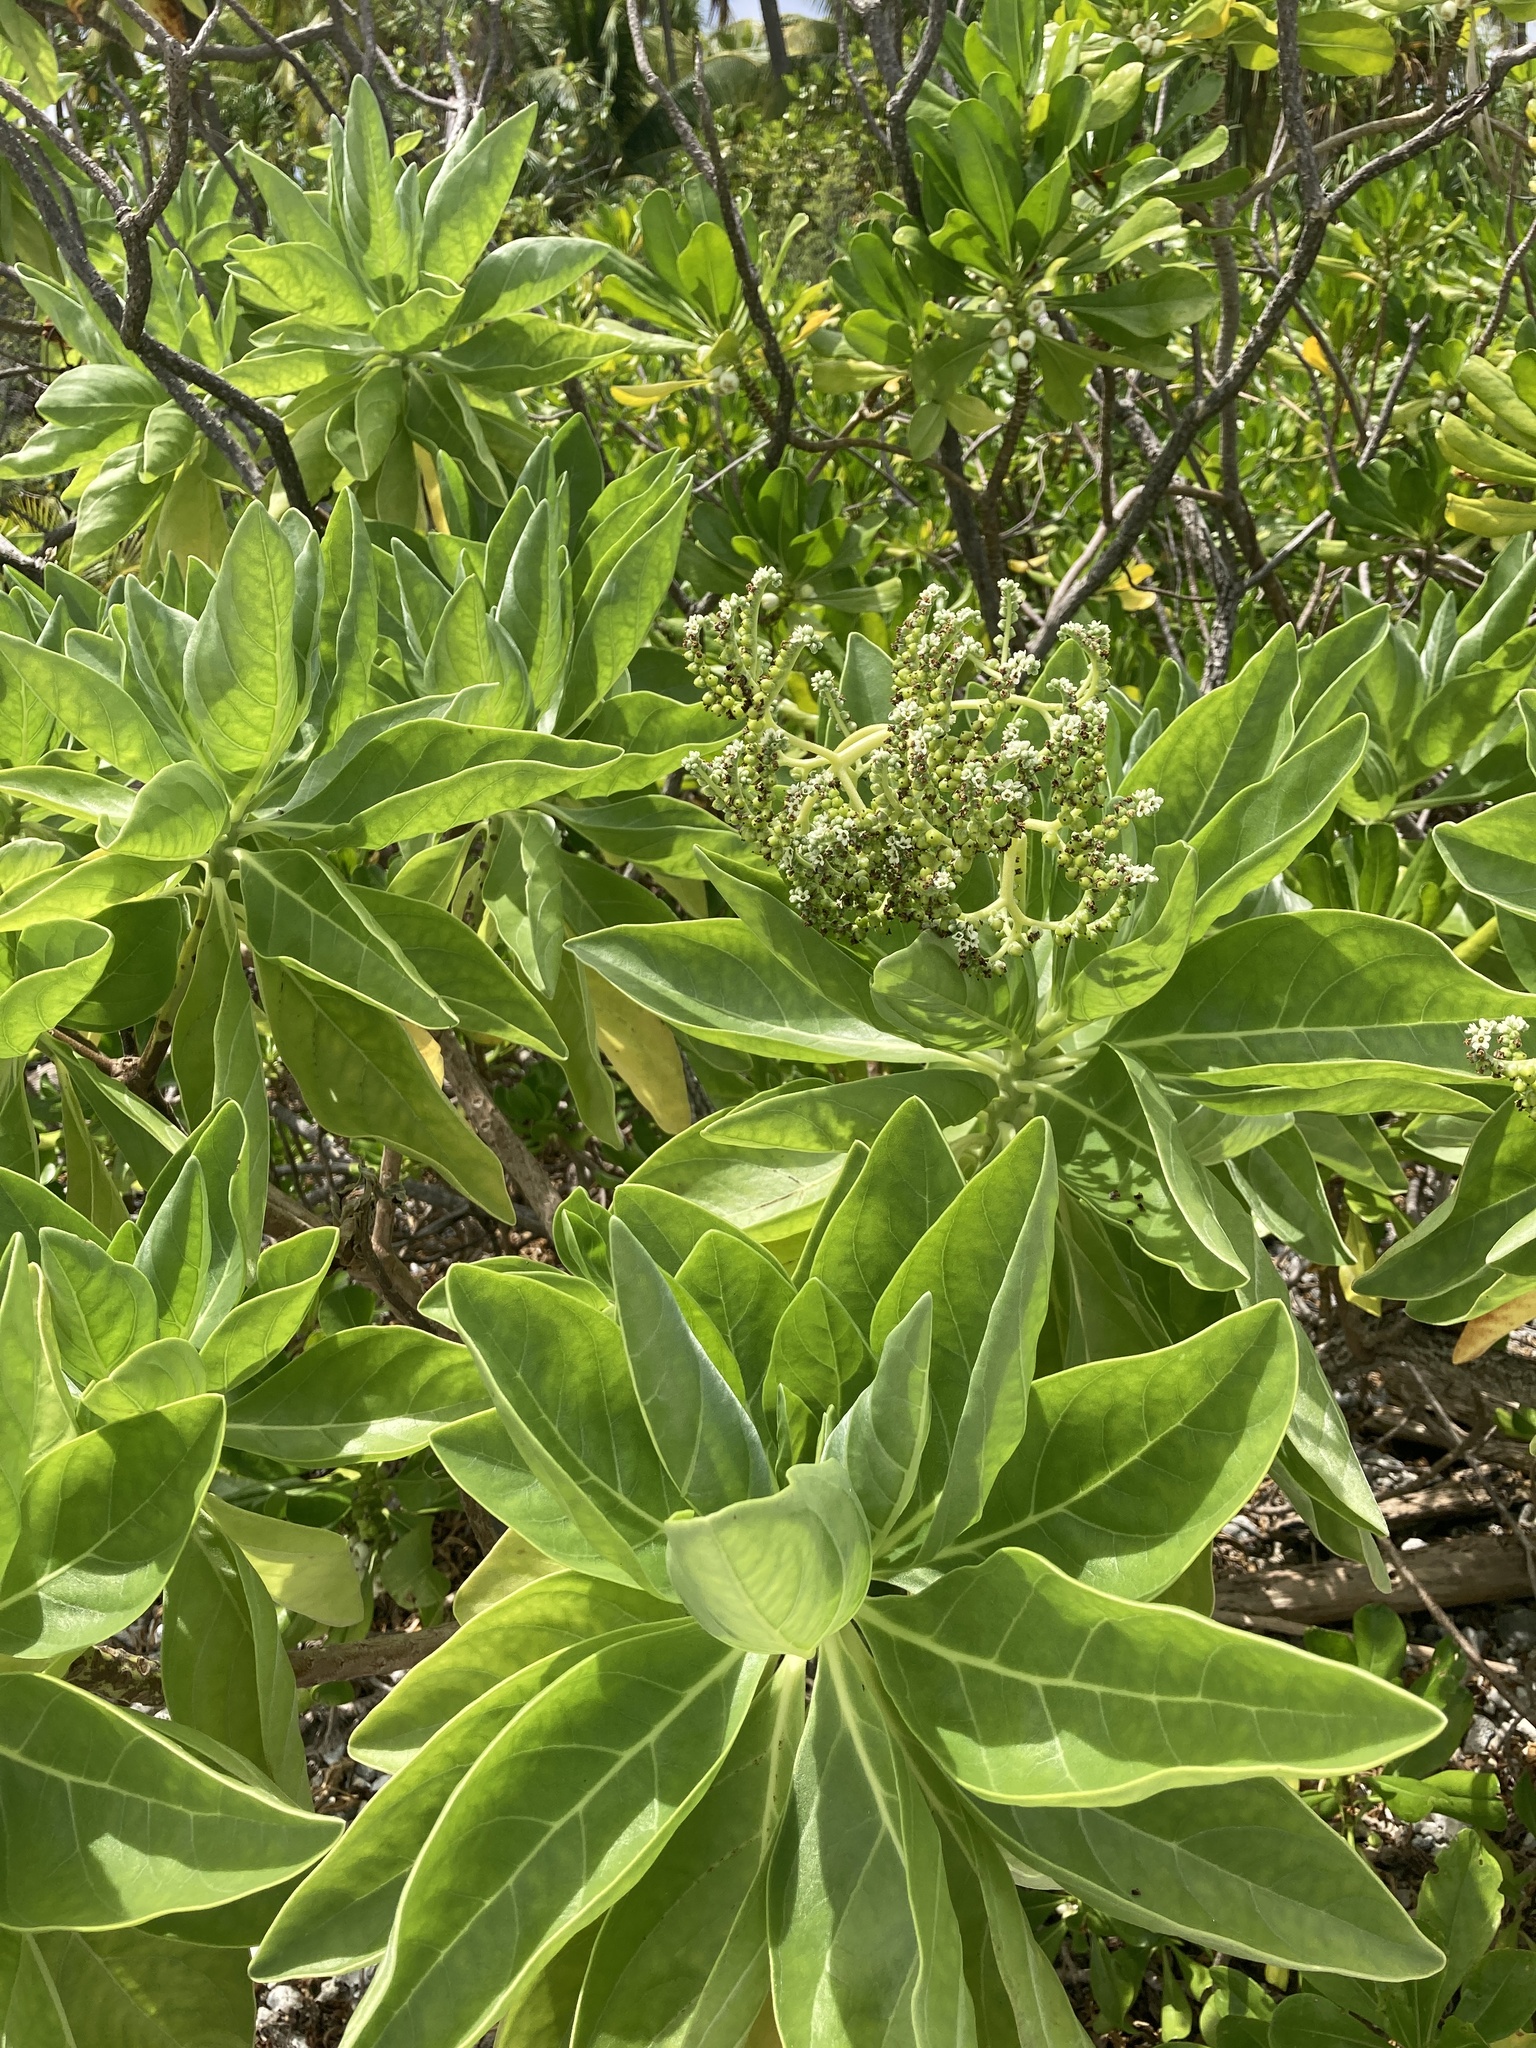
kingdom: Plantae
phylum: Tracheophyta
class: Magnoliopsida
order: Boraginales
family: Heliotropiaceae
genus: Heliotropium
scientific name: Heliotropium velutinum
